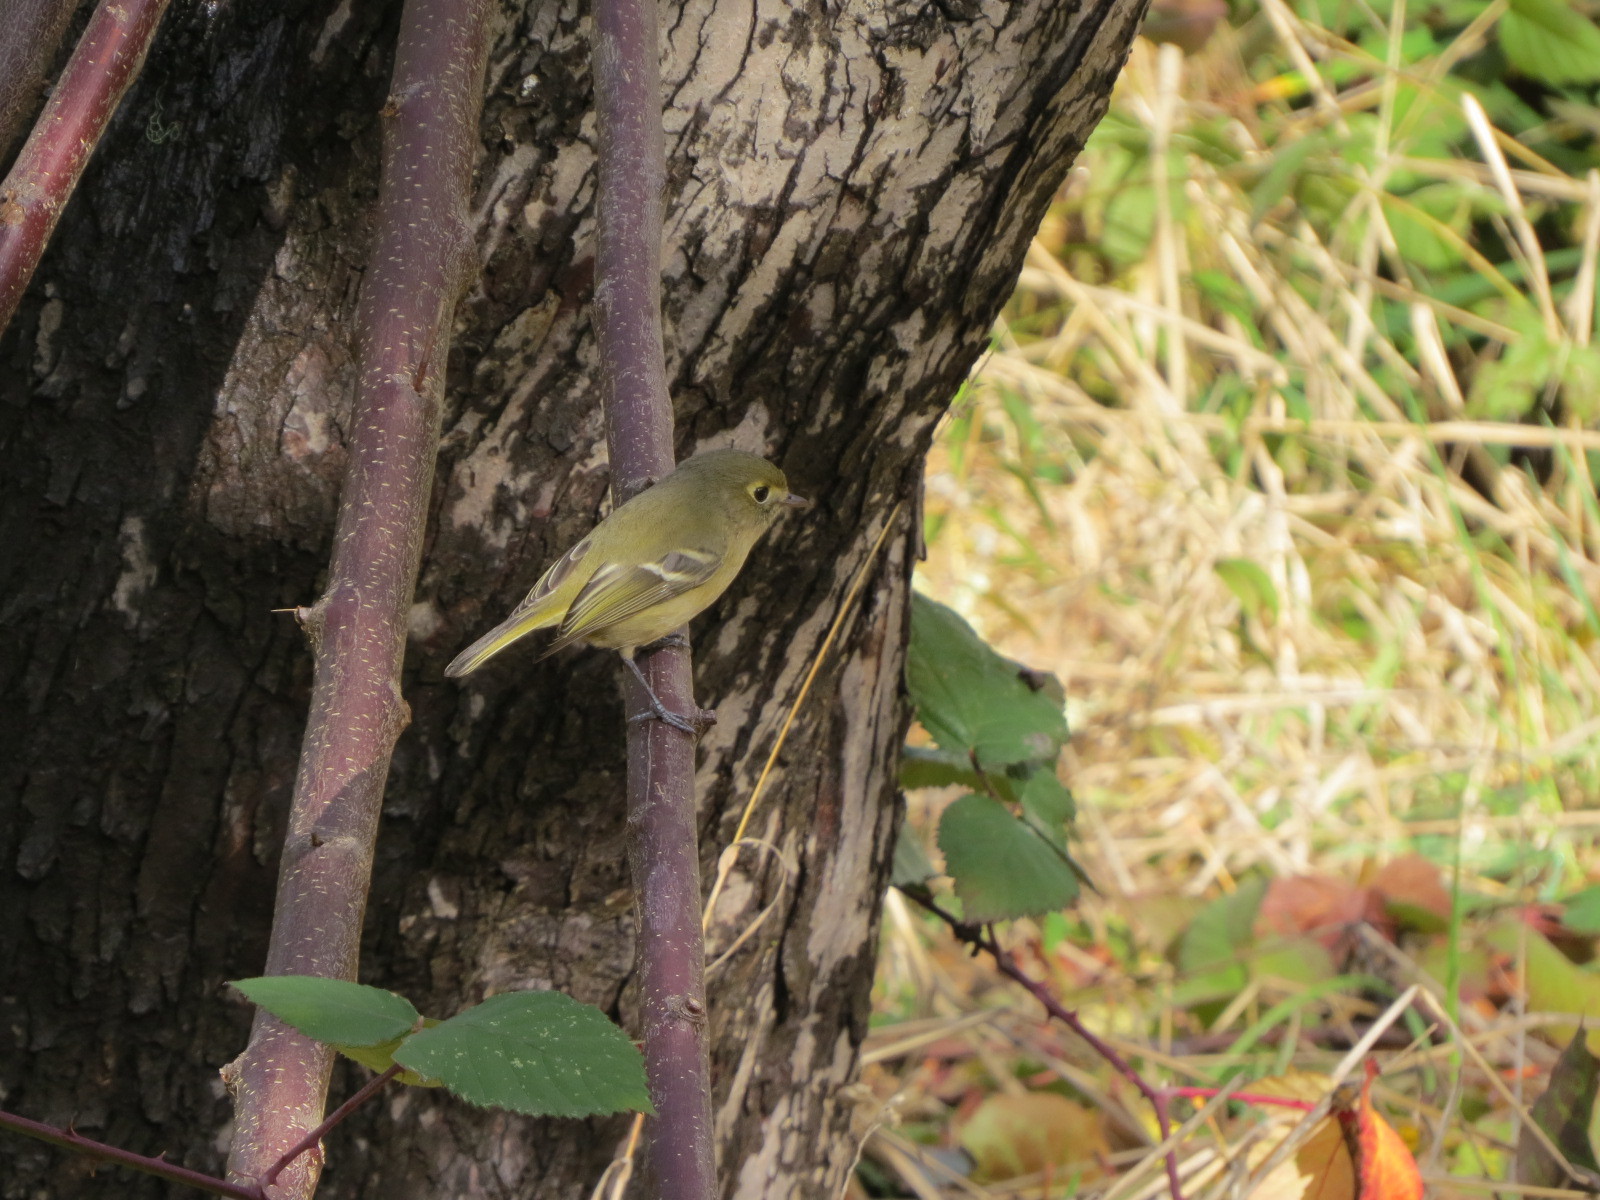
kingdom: Animalia
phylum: Chordata
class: Aves
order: Passeriformes
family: Vireonidae
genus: Vireo
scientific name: Vireo huttoni
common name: Hutton's vireo
